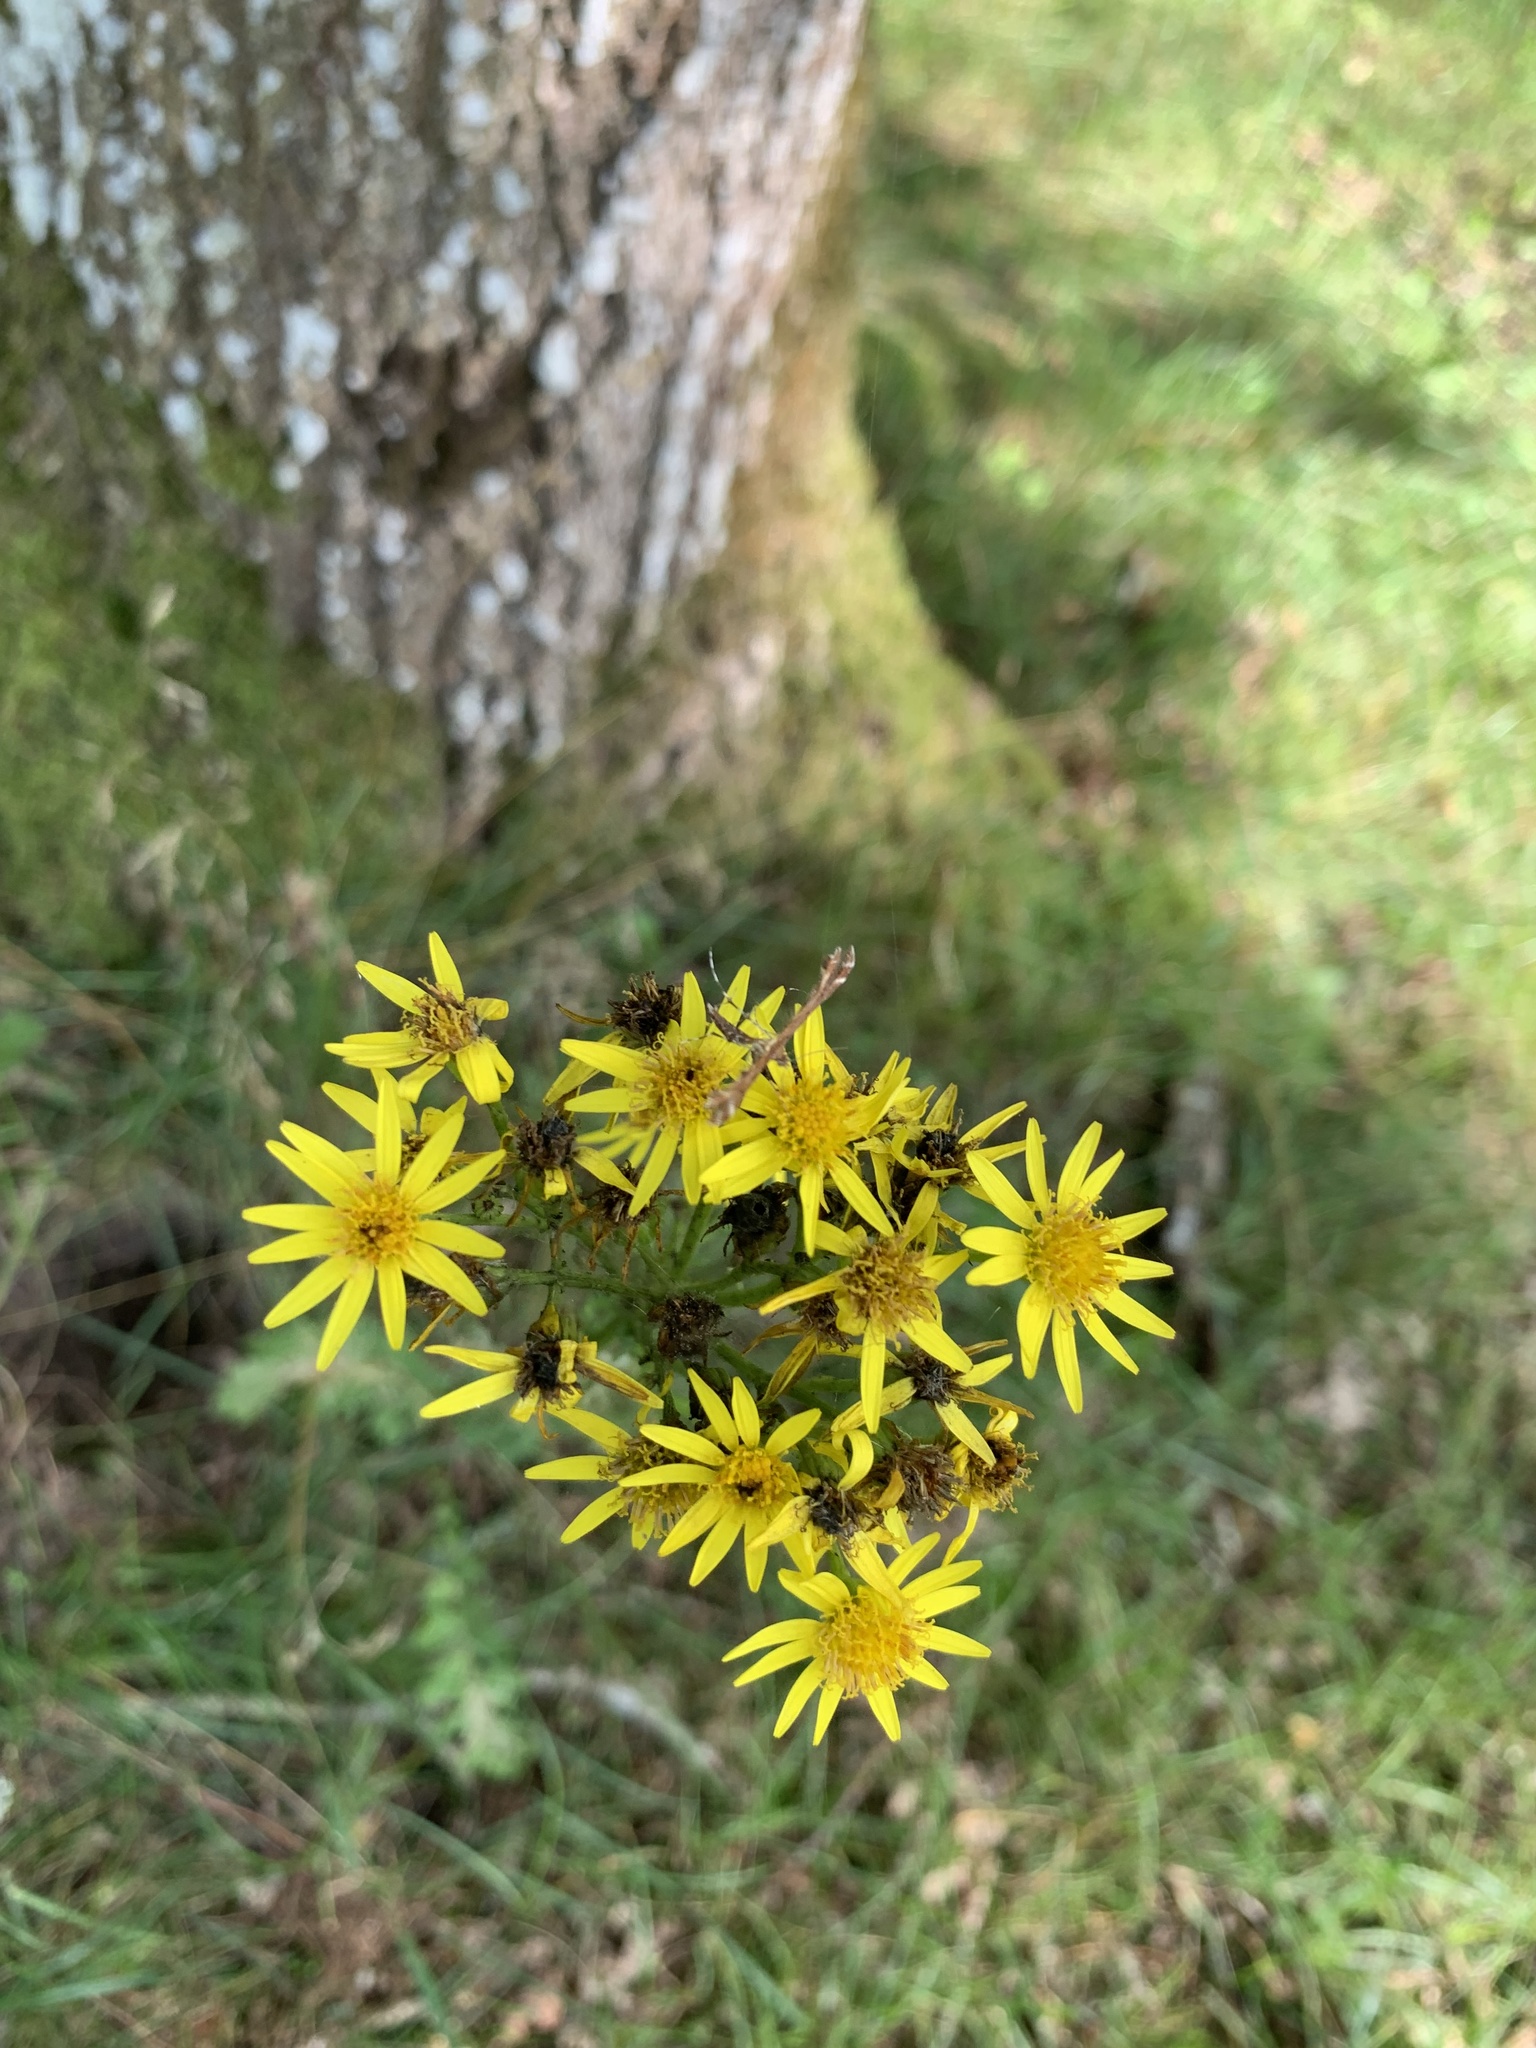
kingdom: Plantae
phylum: Tracheophyta
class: Magnoliopsida
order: Asterales
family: Asteraceae
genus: Jacobaea
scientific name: Jacobaea vulgaris
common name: Stinking willie
